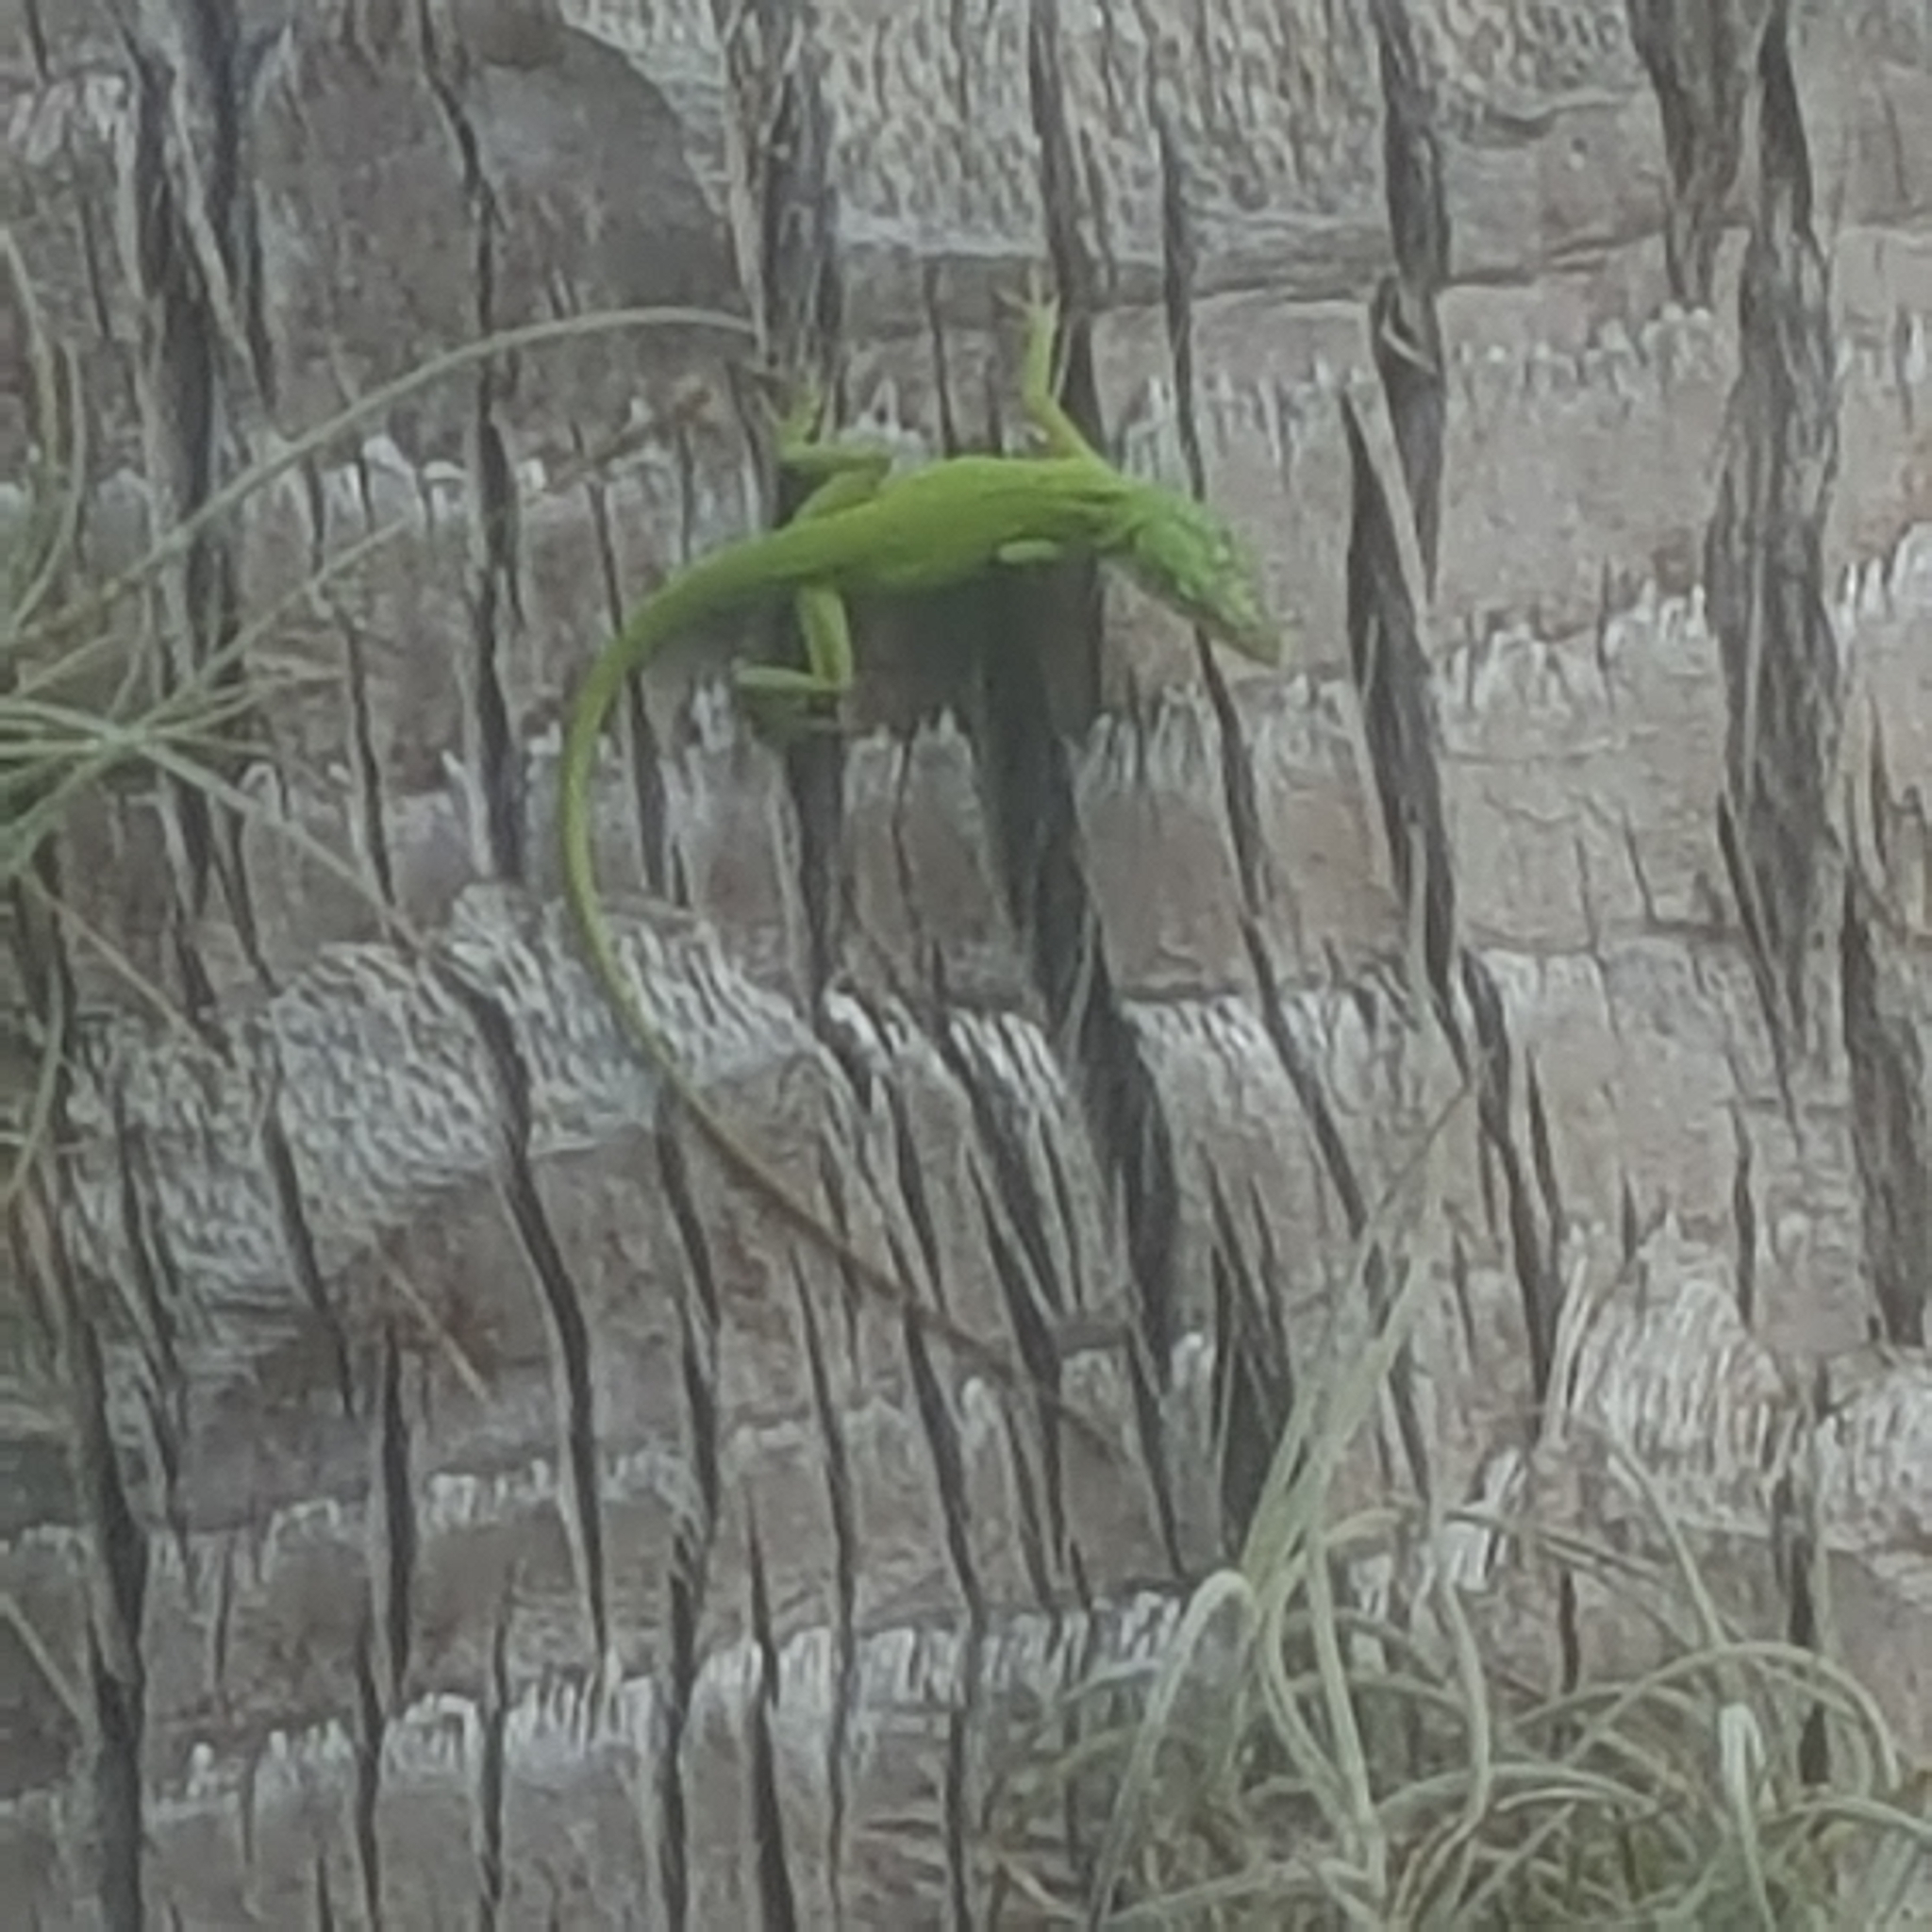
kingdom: Animalia
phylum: Chordata
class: Squamata
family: Dactyloidae
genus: Anolis
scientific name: Anolis carolinensis
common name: Green anole
